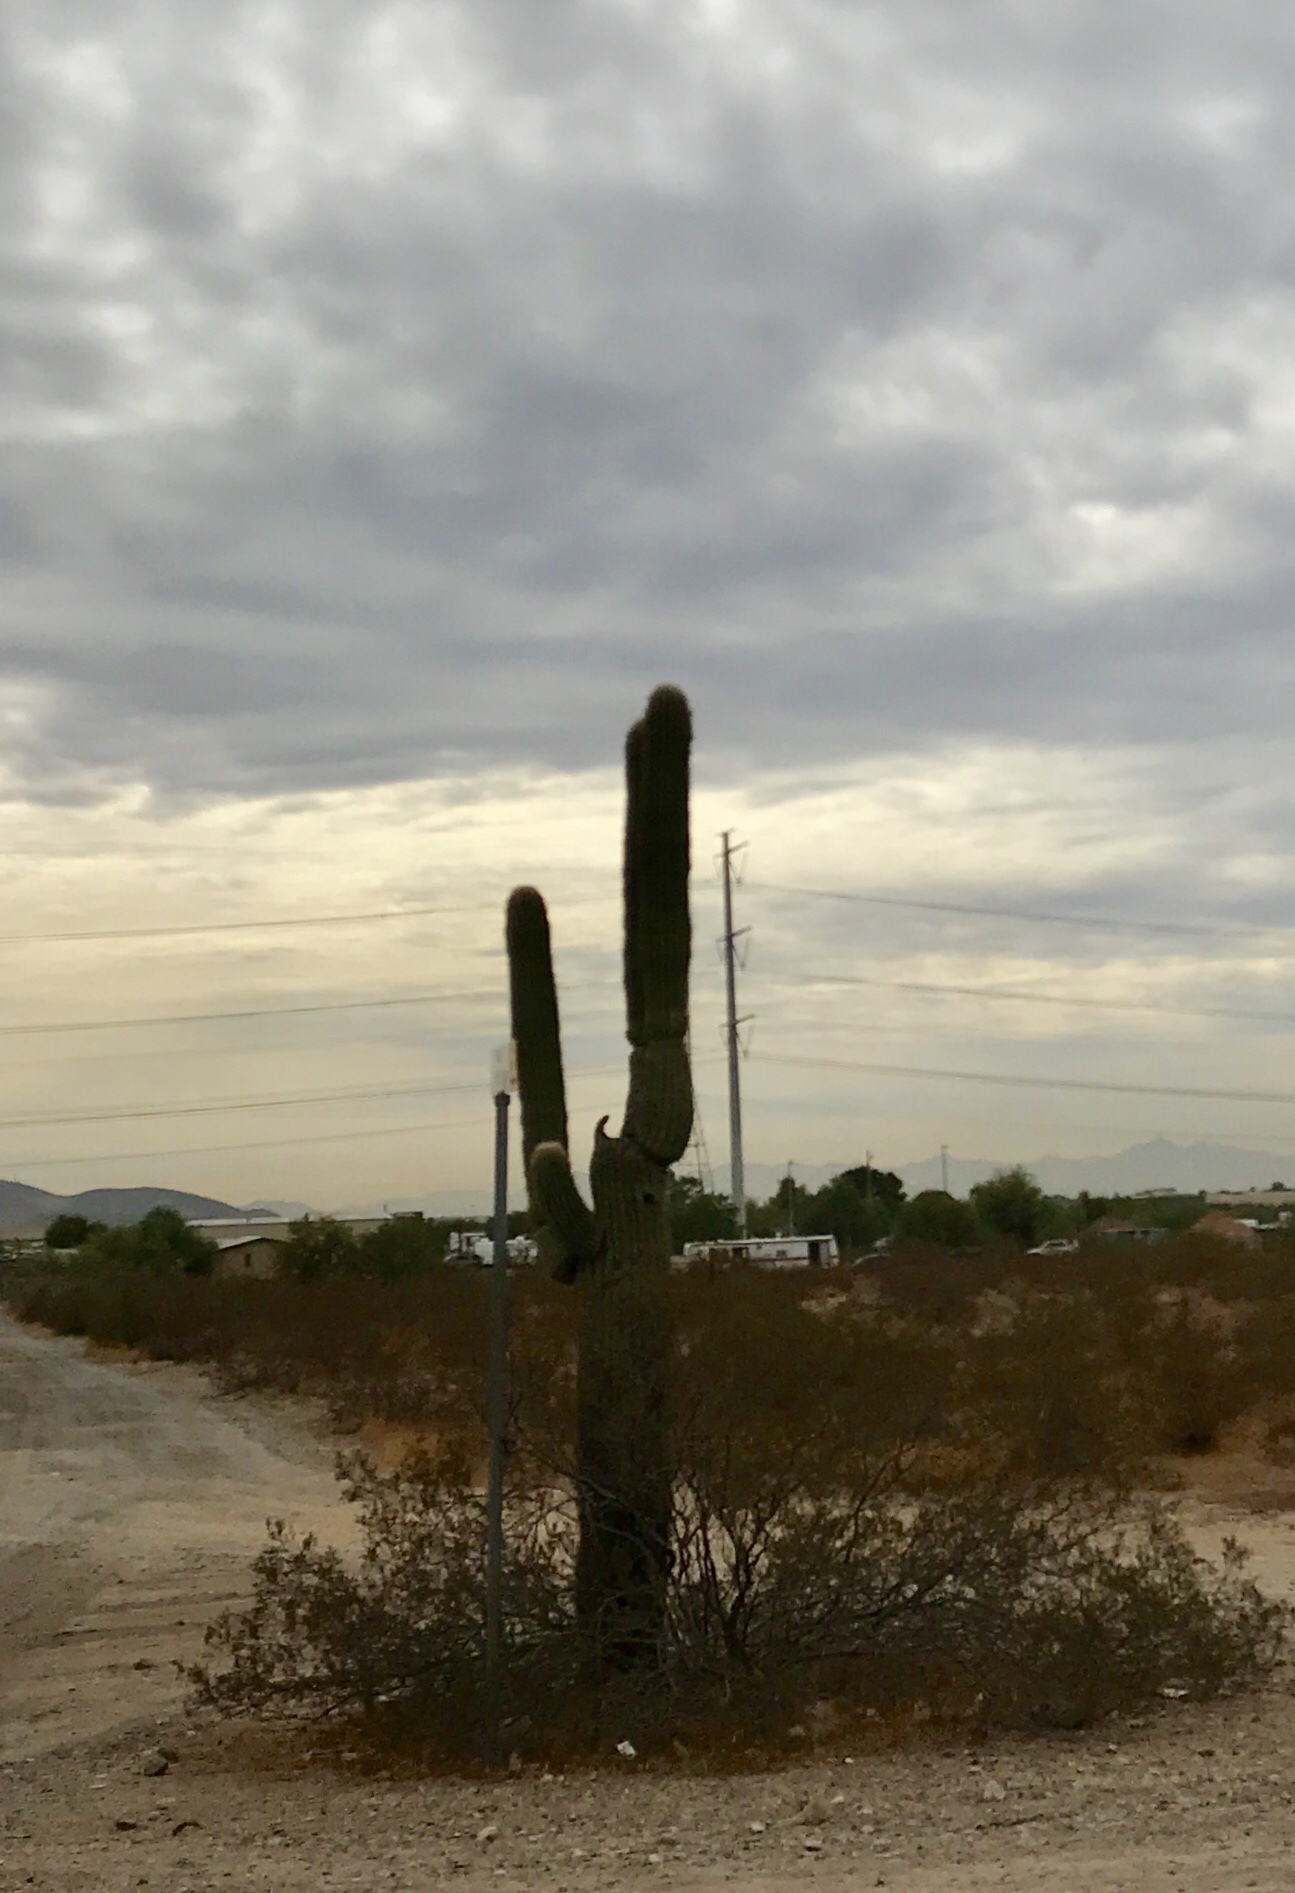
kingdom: Plantae
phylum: Tracheophyta
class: Magnoliopsida
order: Caryophyllales
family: Cactaceae
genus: Carnegiea
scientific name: Carnegiea gigantea
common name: Saguaro
